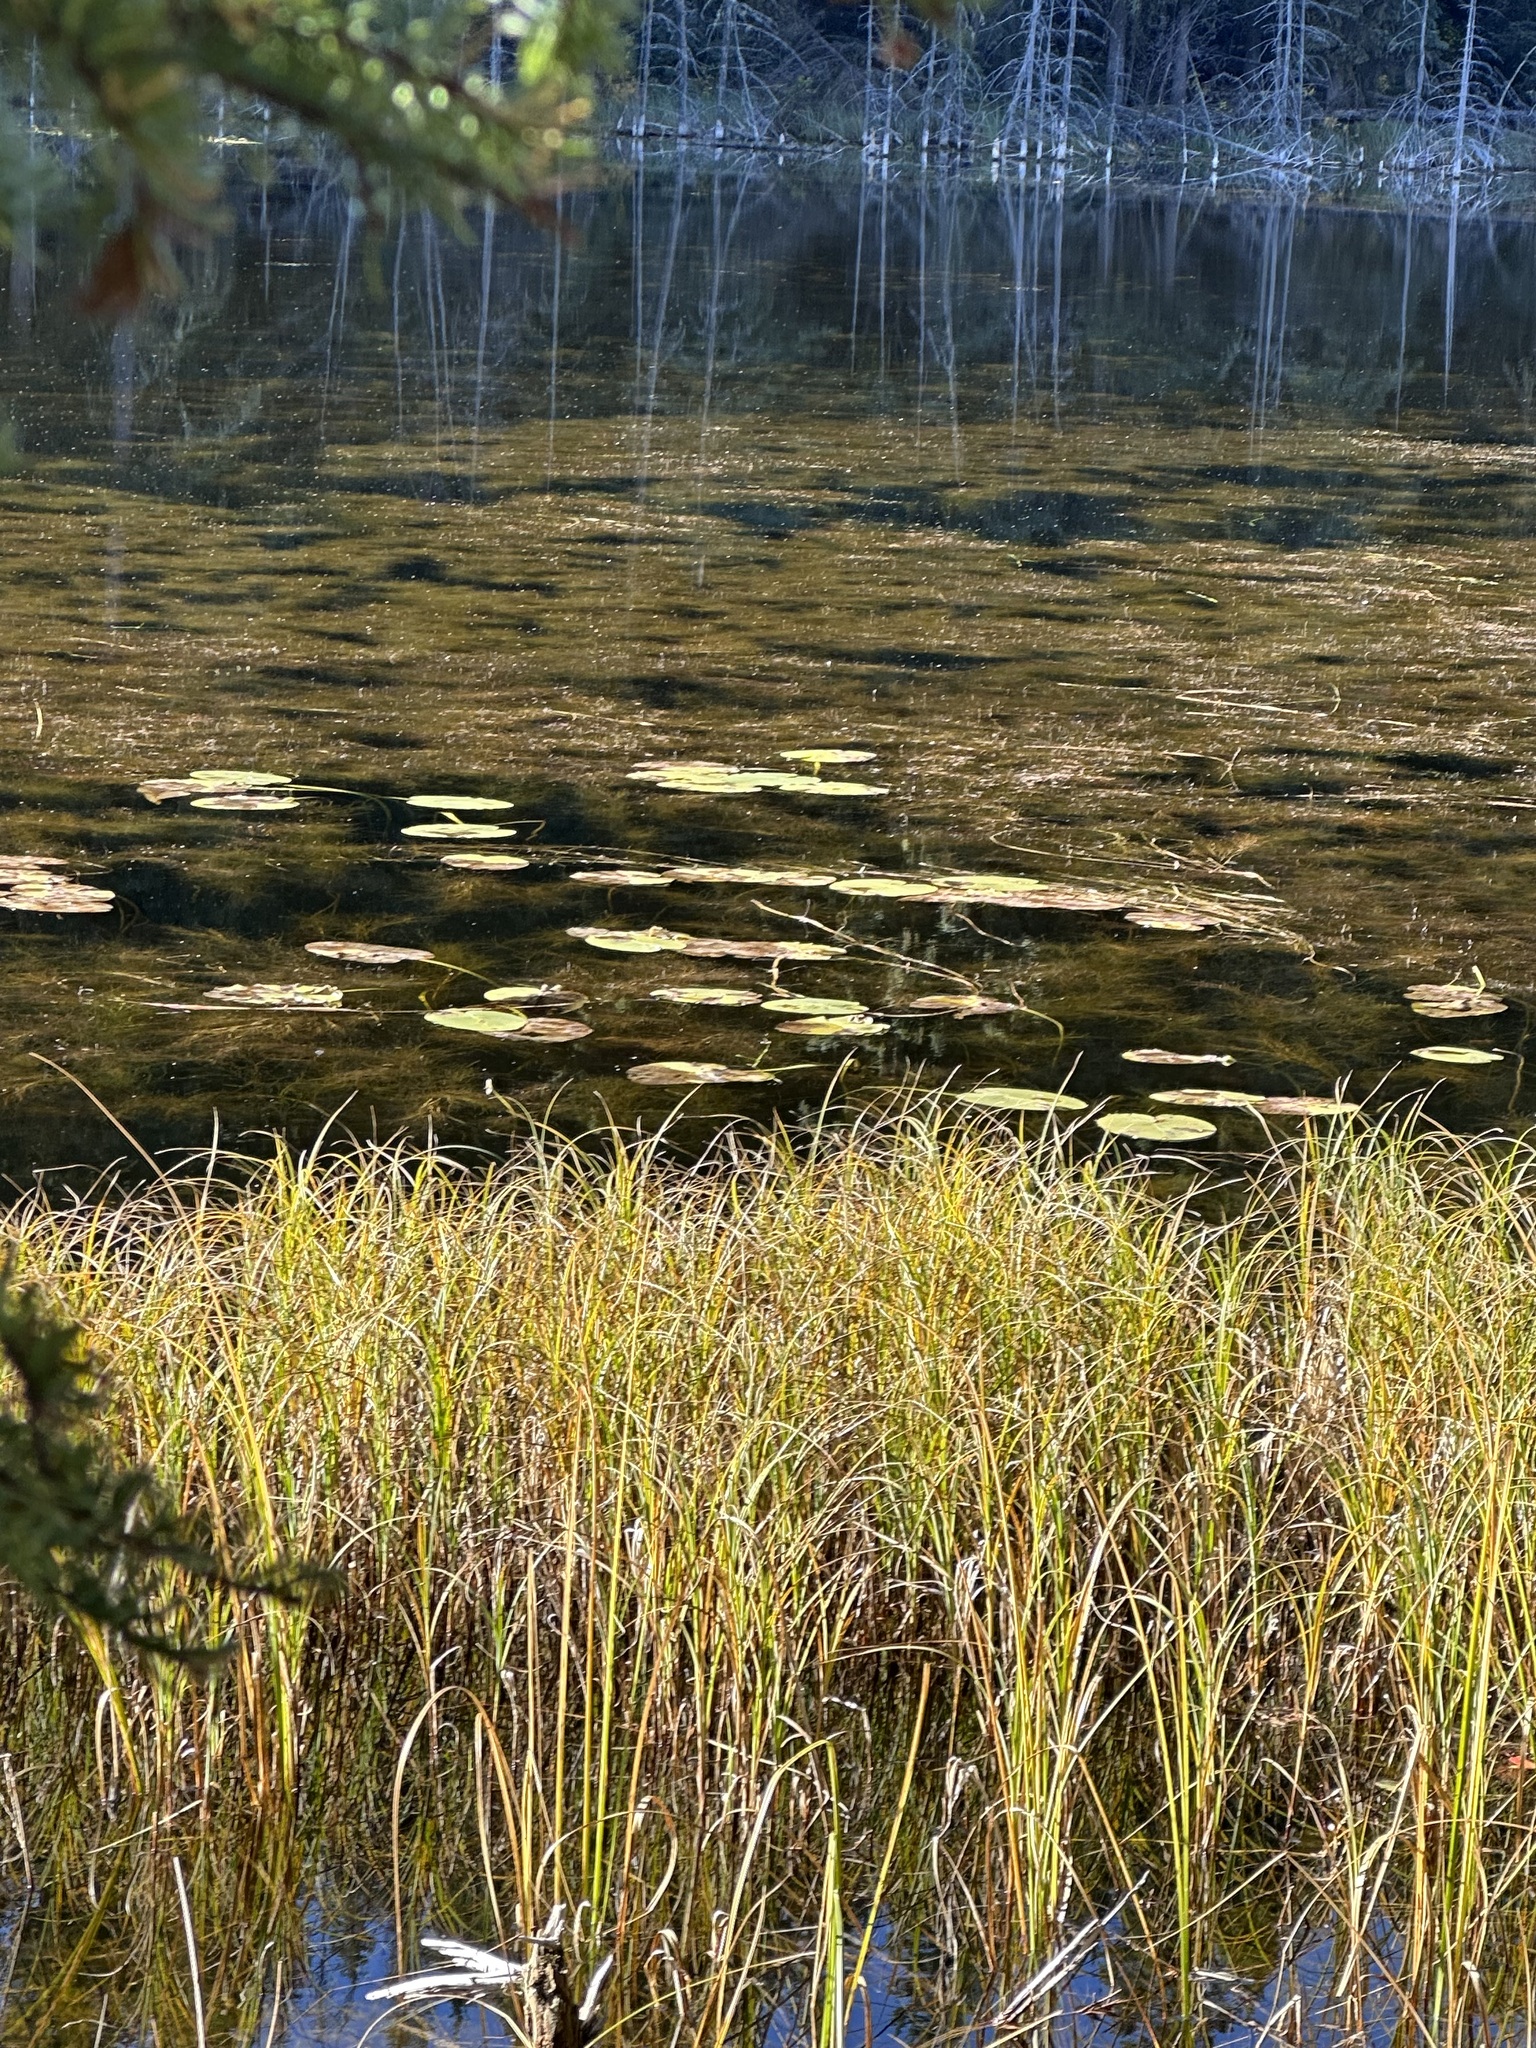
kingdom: Plantae
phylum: Tracheophyta
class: Magnoliopsida
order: Nymphaeales
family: Nymphaeaceae
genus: Nuphar
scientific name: Nuphar variegata
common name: Beaver-root
